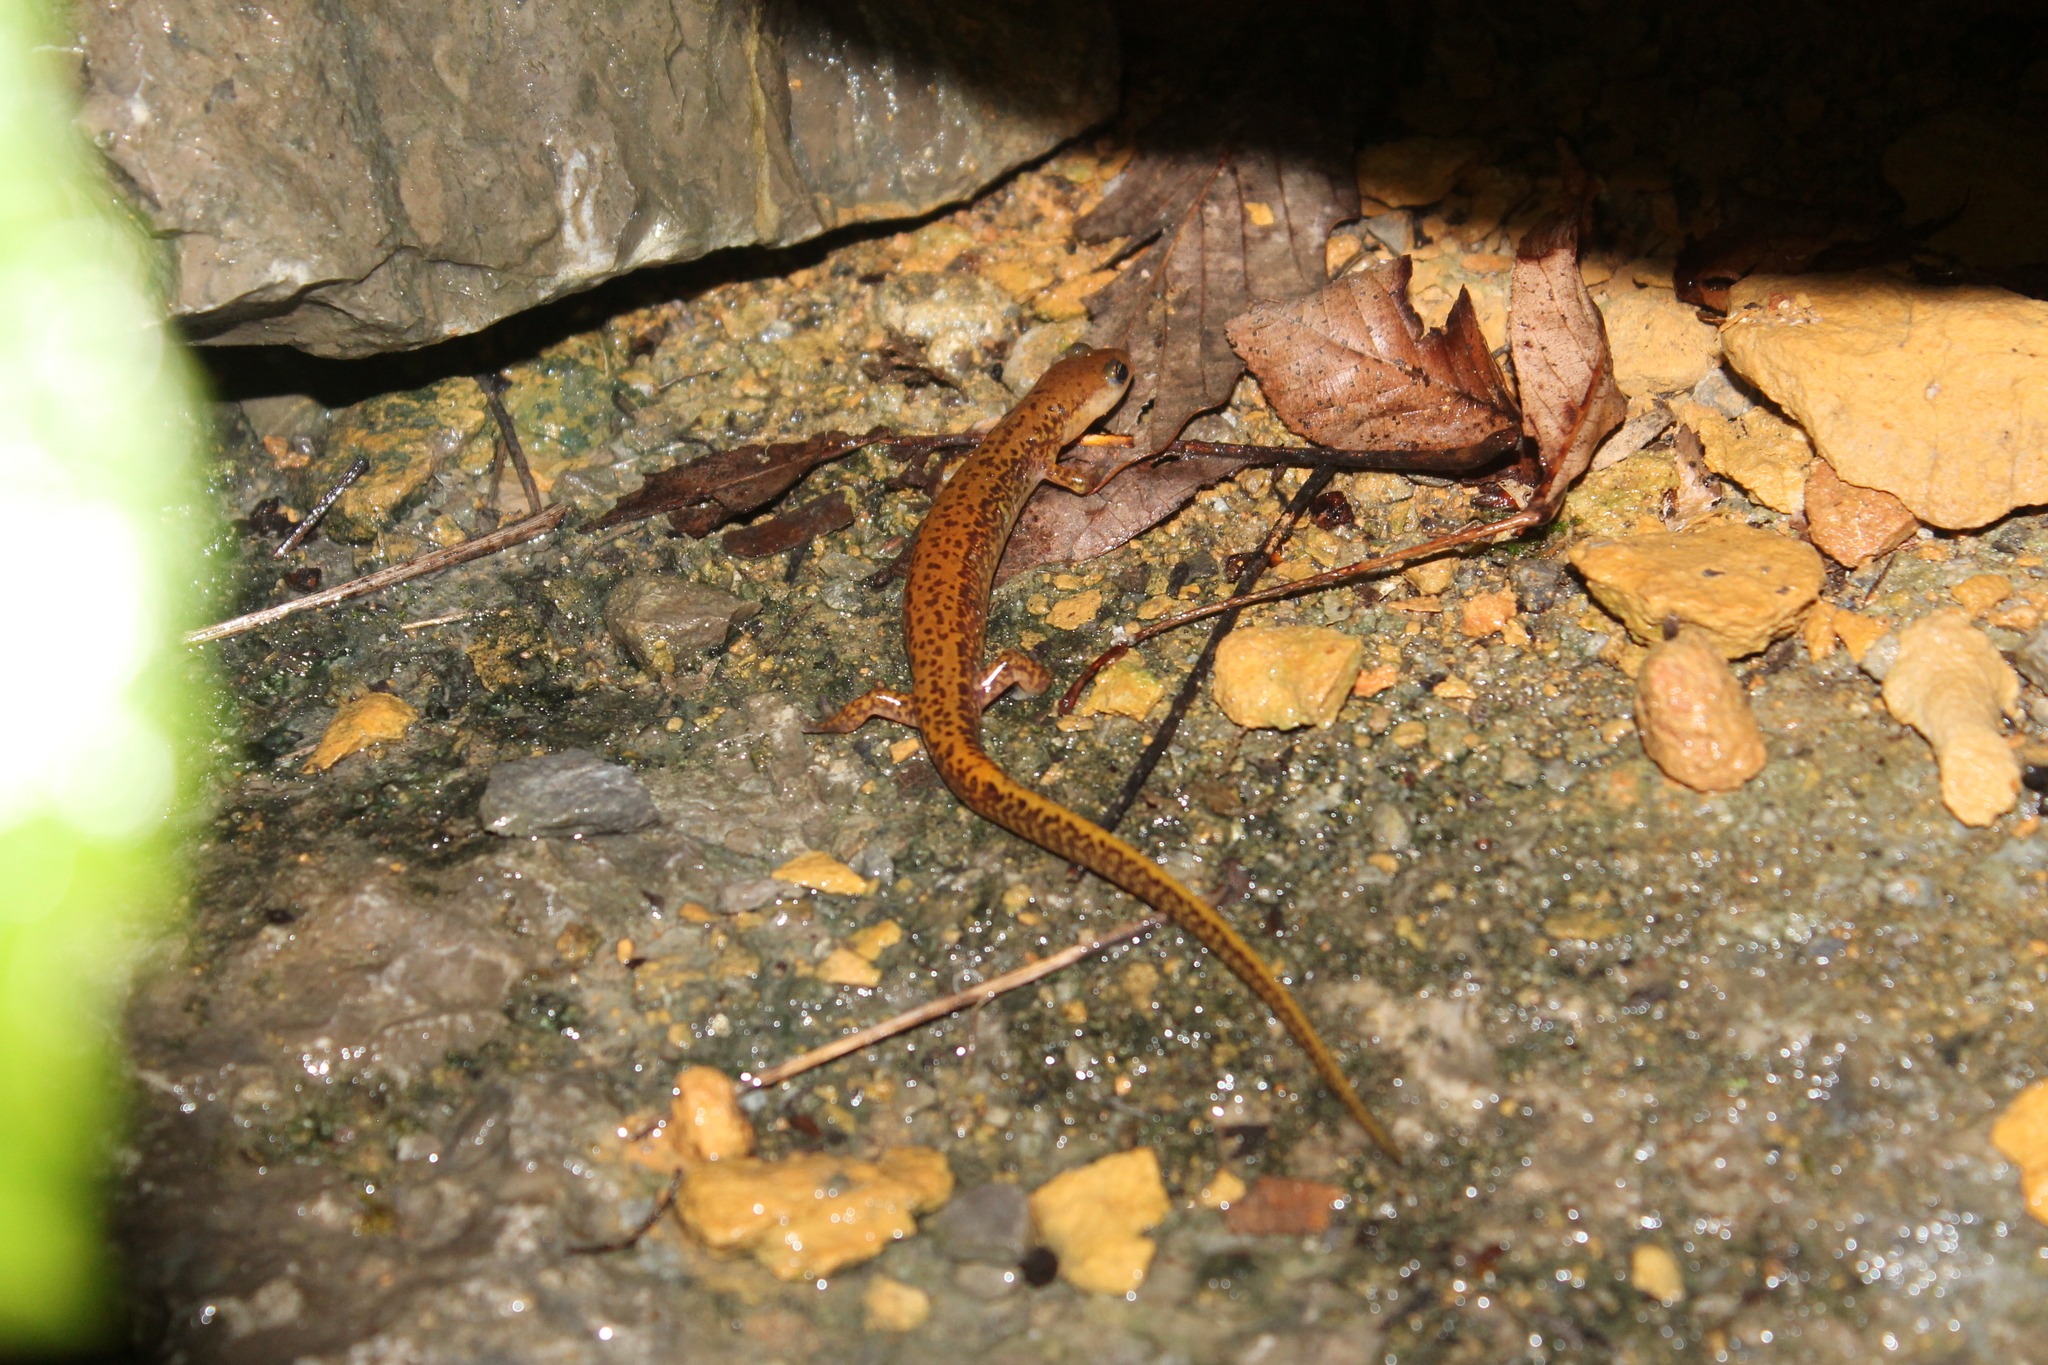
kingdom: Animalia
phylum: Chordata
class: Amphibia
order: Caudata
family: Plethodontidae
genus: Eurycea
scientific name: Eurycea longicauda
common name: Long-tailed salamander
